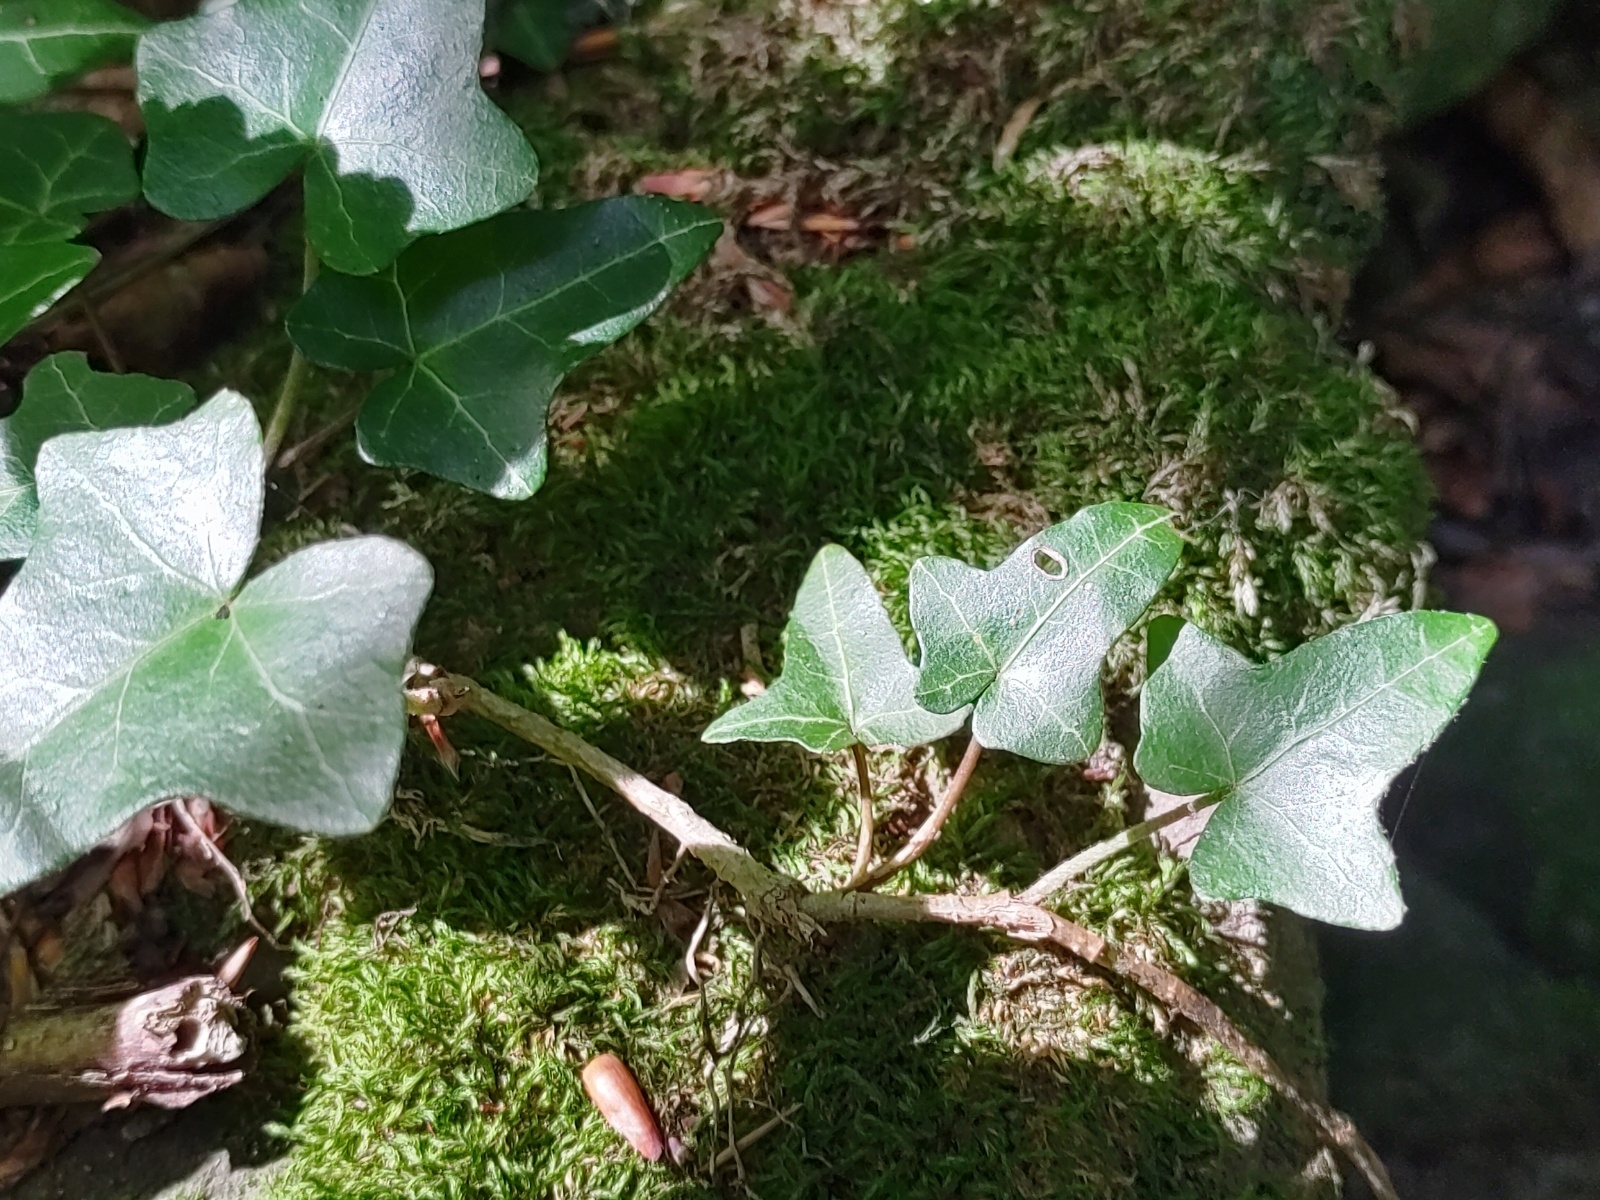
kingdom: Plantae
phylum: Tracheophyta
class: Magnoliopsida
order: Apiales
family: Araliaceae
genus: Hedera
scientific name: Hedera helix
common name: Ivy
